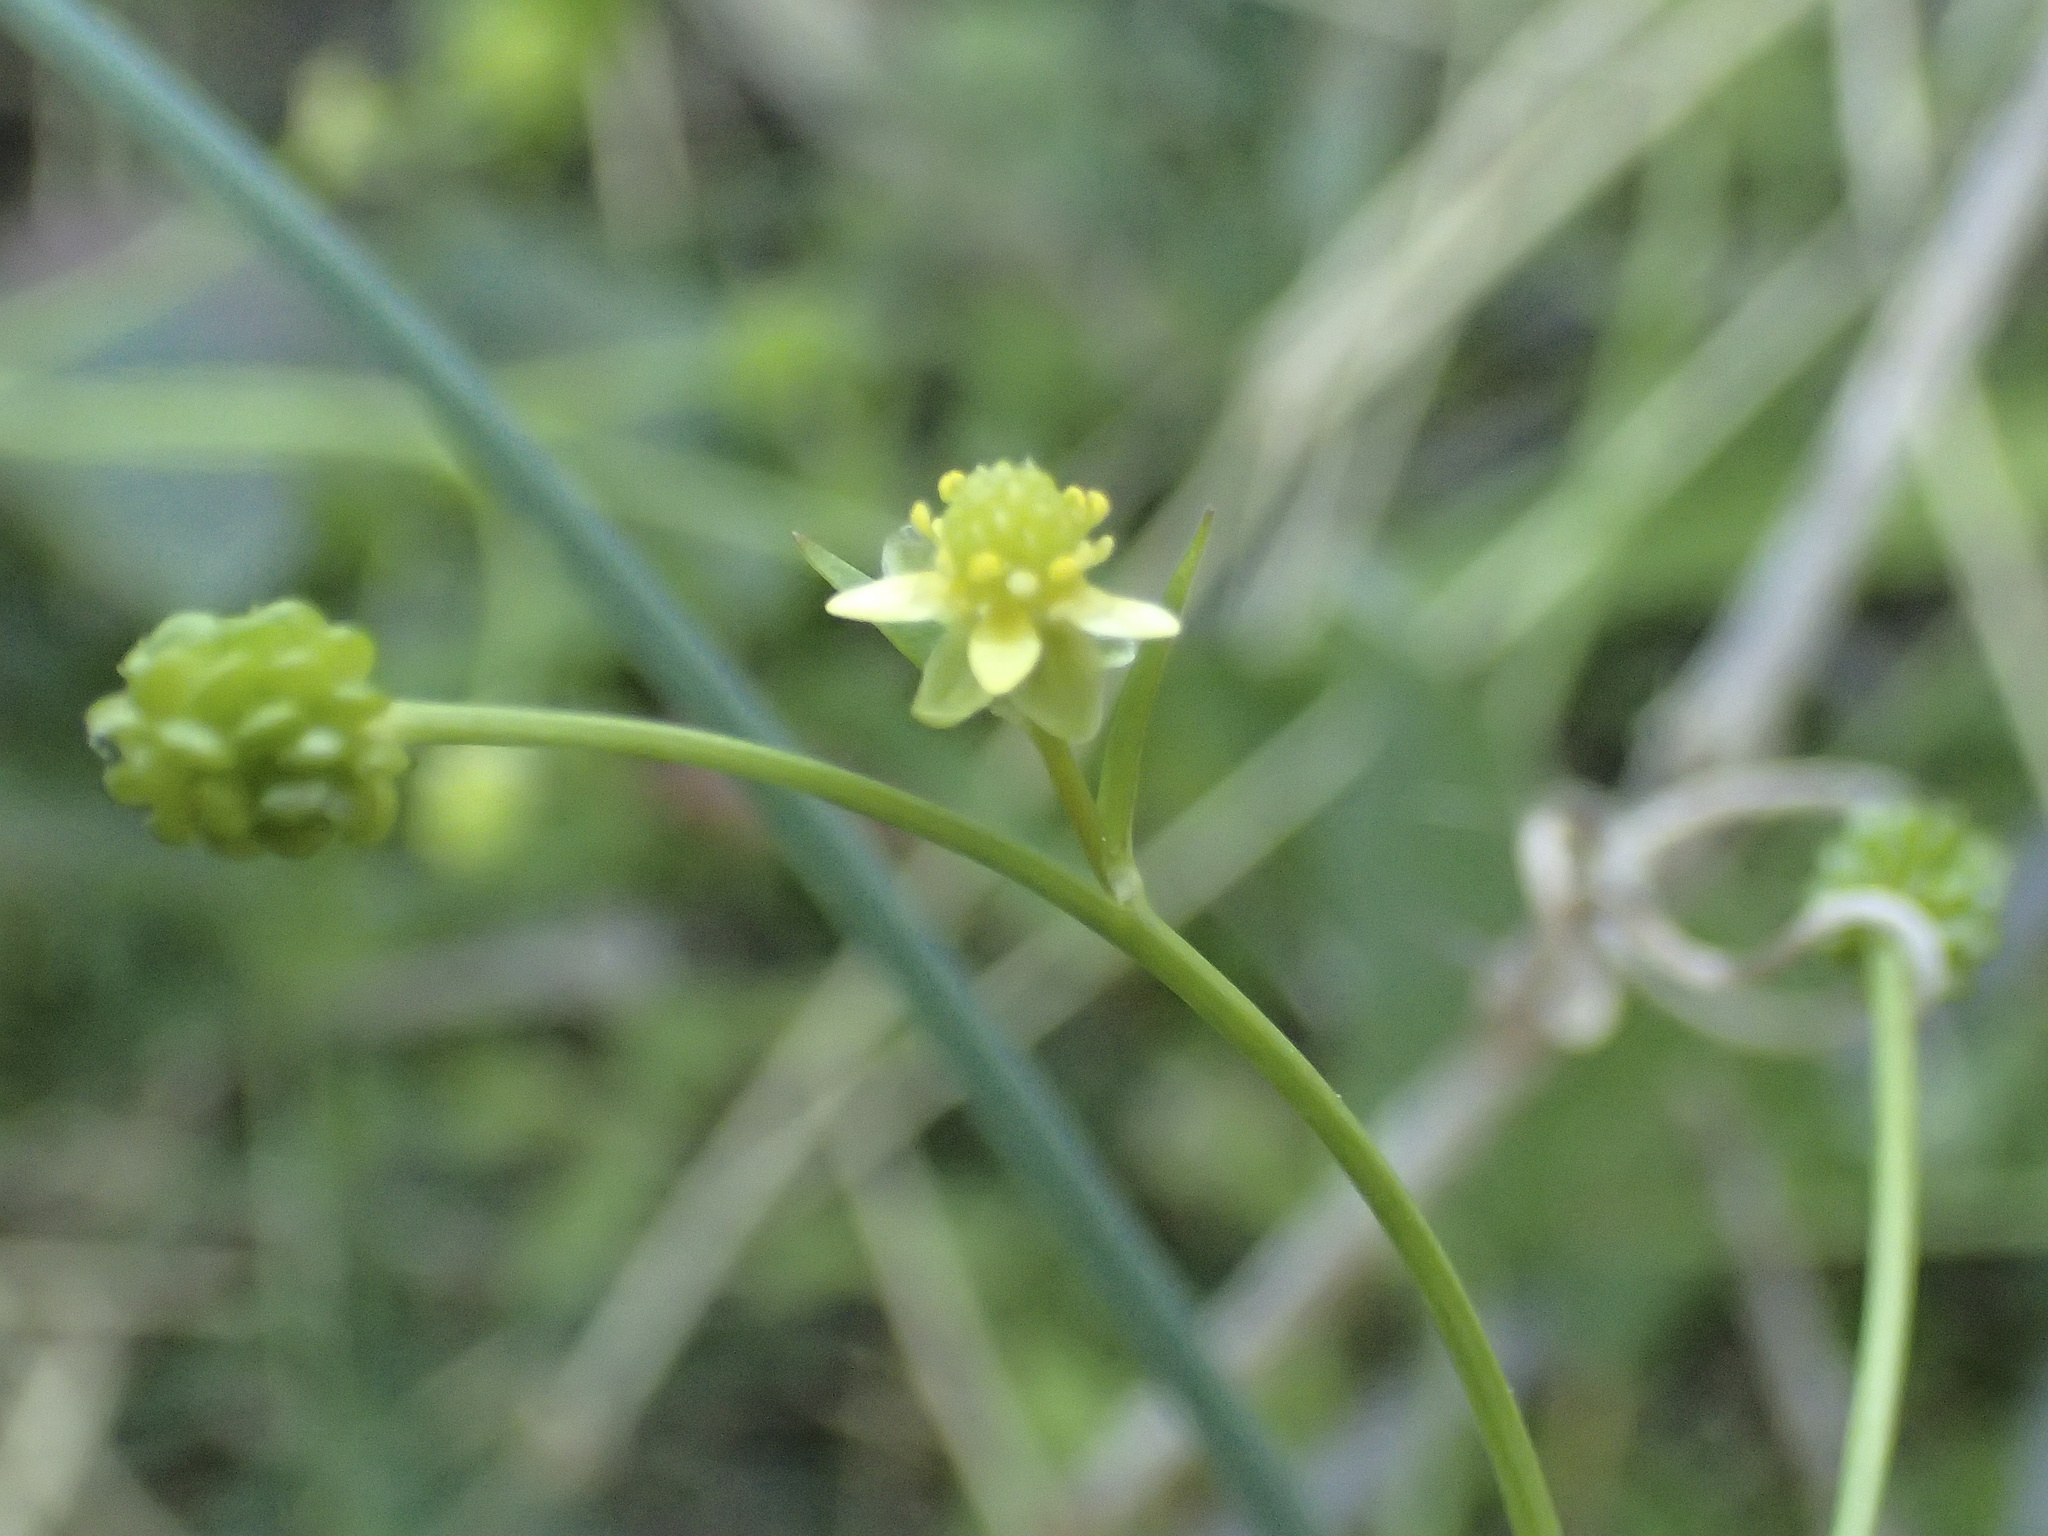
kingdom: Plantae
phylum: Tracheophyta
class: Magnoliopsida
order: Ranunculales
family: Ranunculaceae
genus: Ranunculus
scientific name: Ranunculus abortivus
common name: Early wood buttercup
